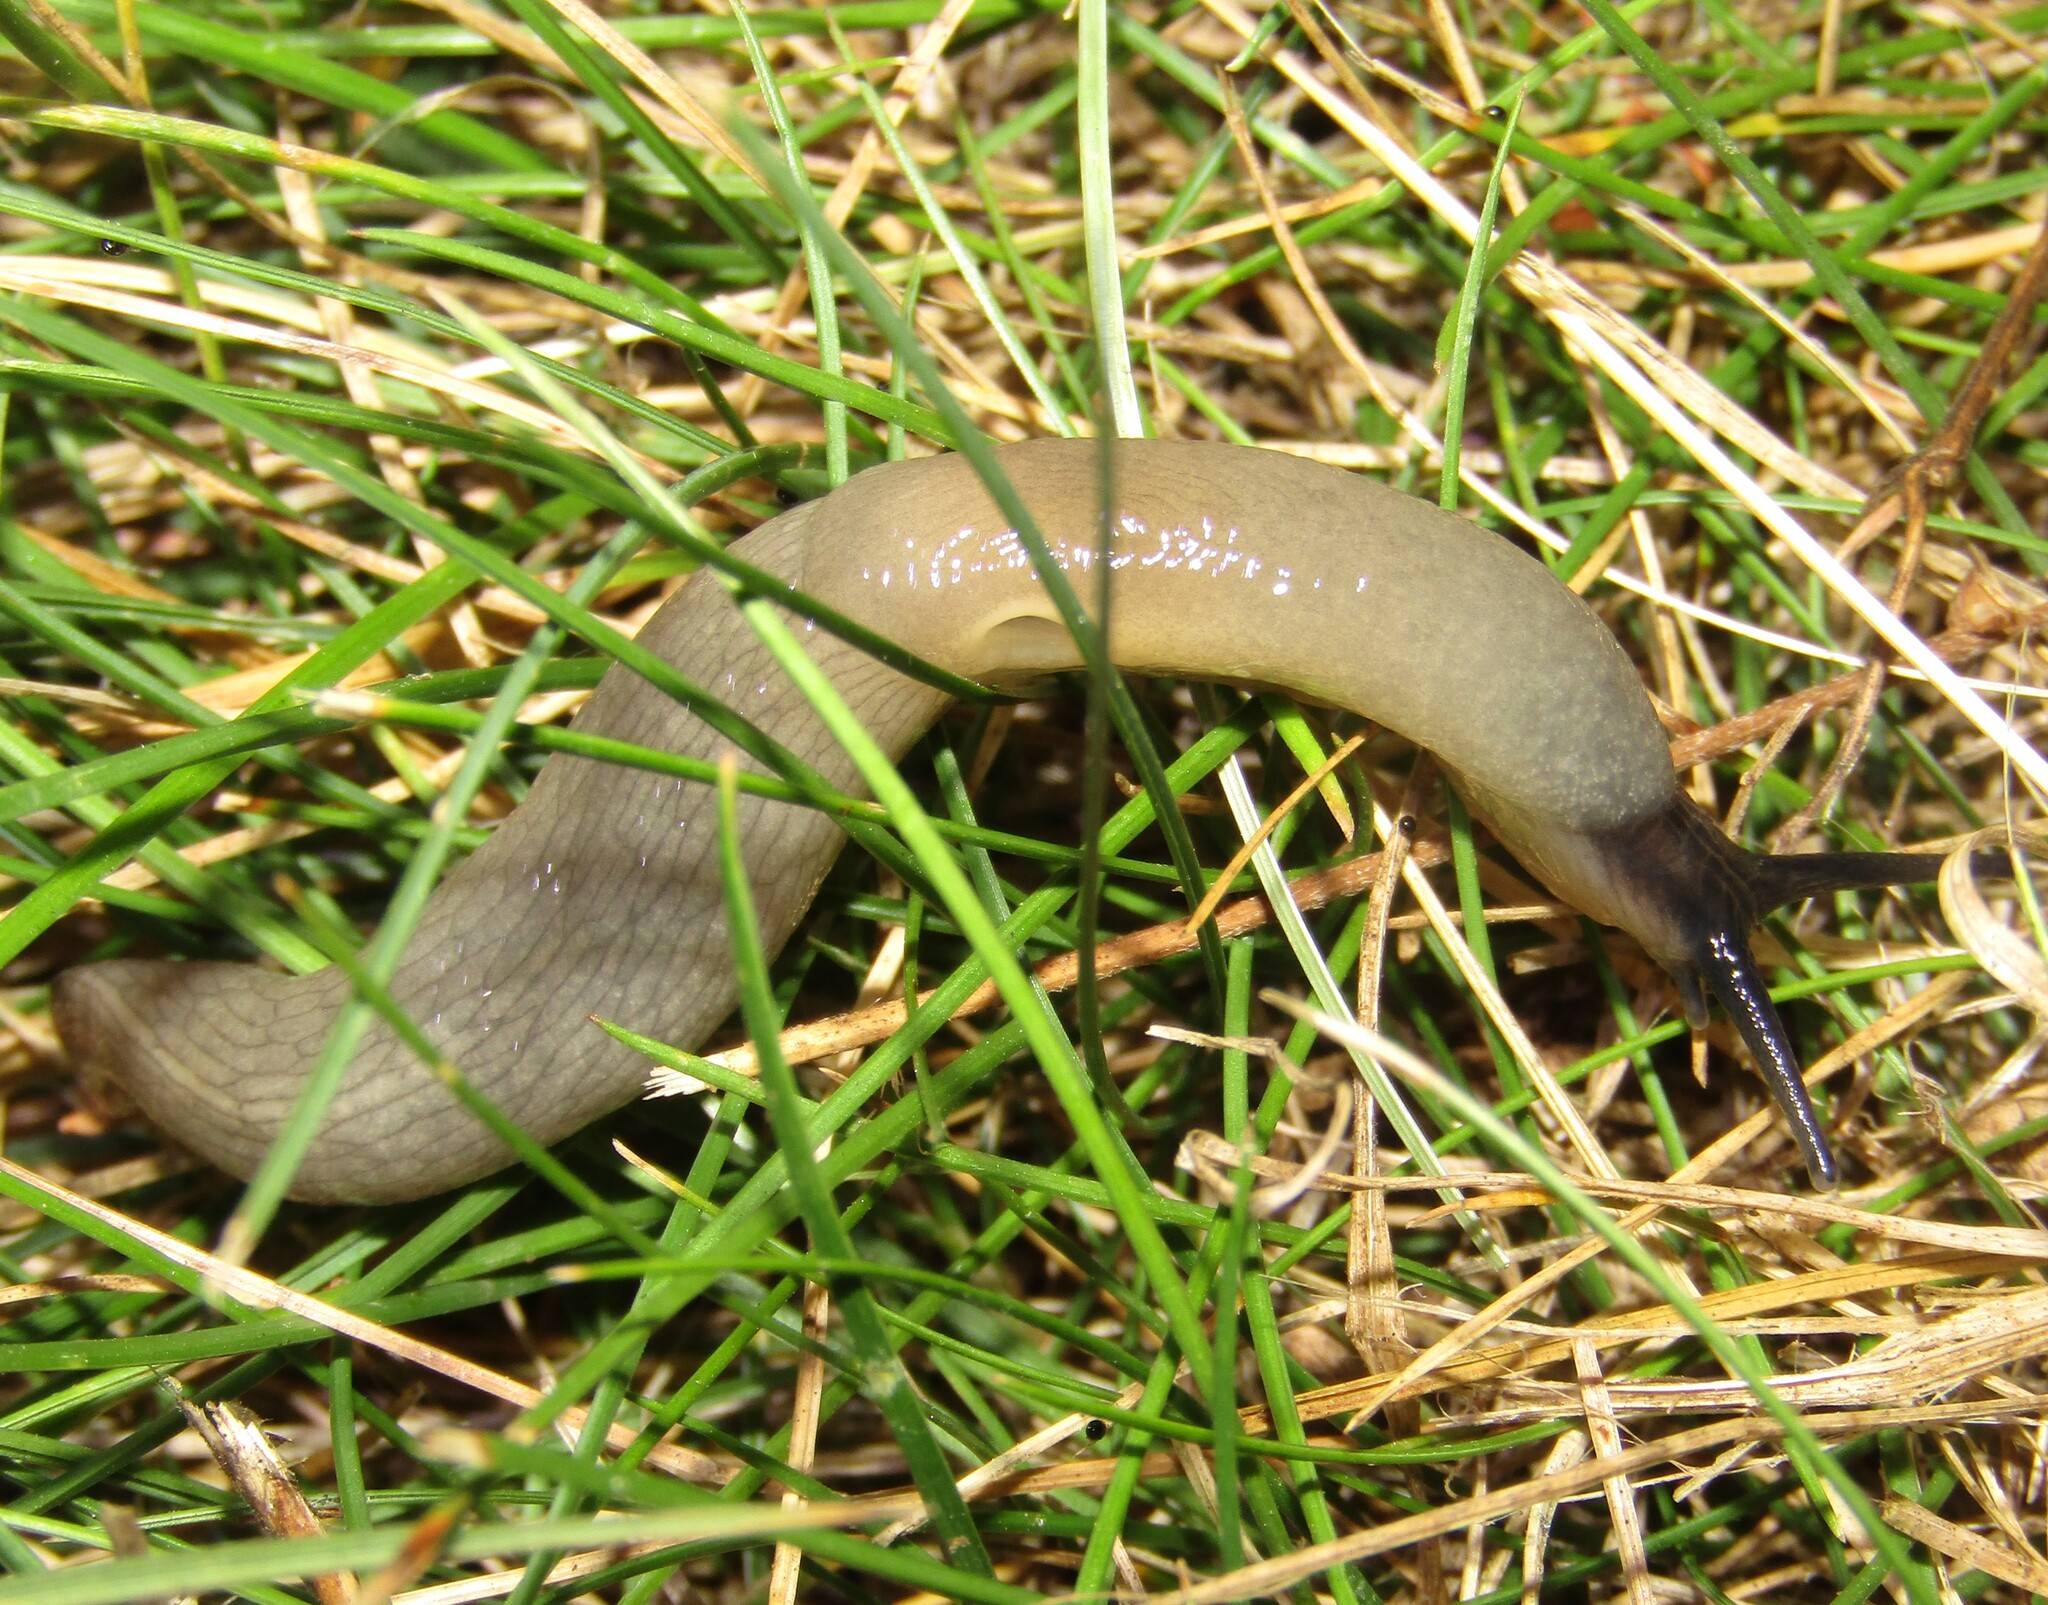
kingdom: Animalia
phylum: Mollusca
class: Gastropoda
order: Stylommatophora
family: Agriolimacidae
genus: Krynickillus
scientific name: Krynickillus melanocephalus
